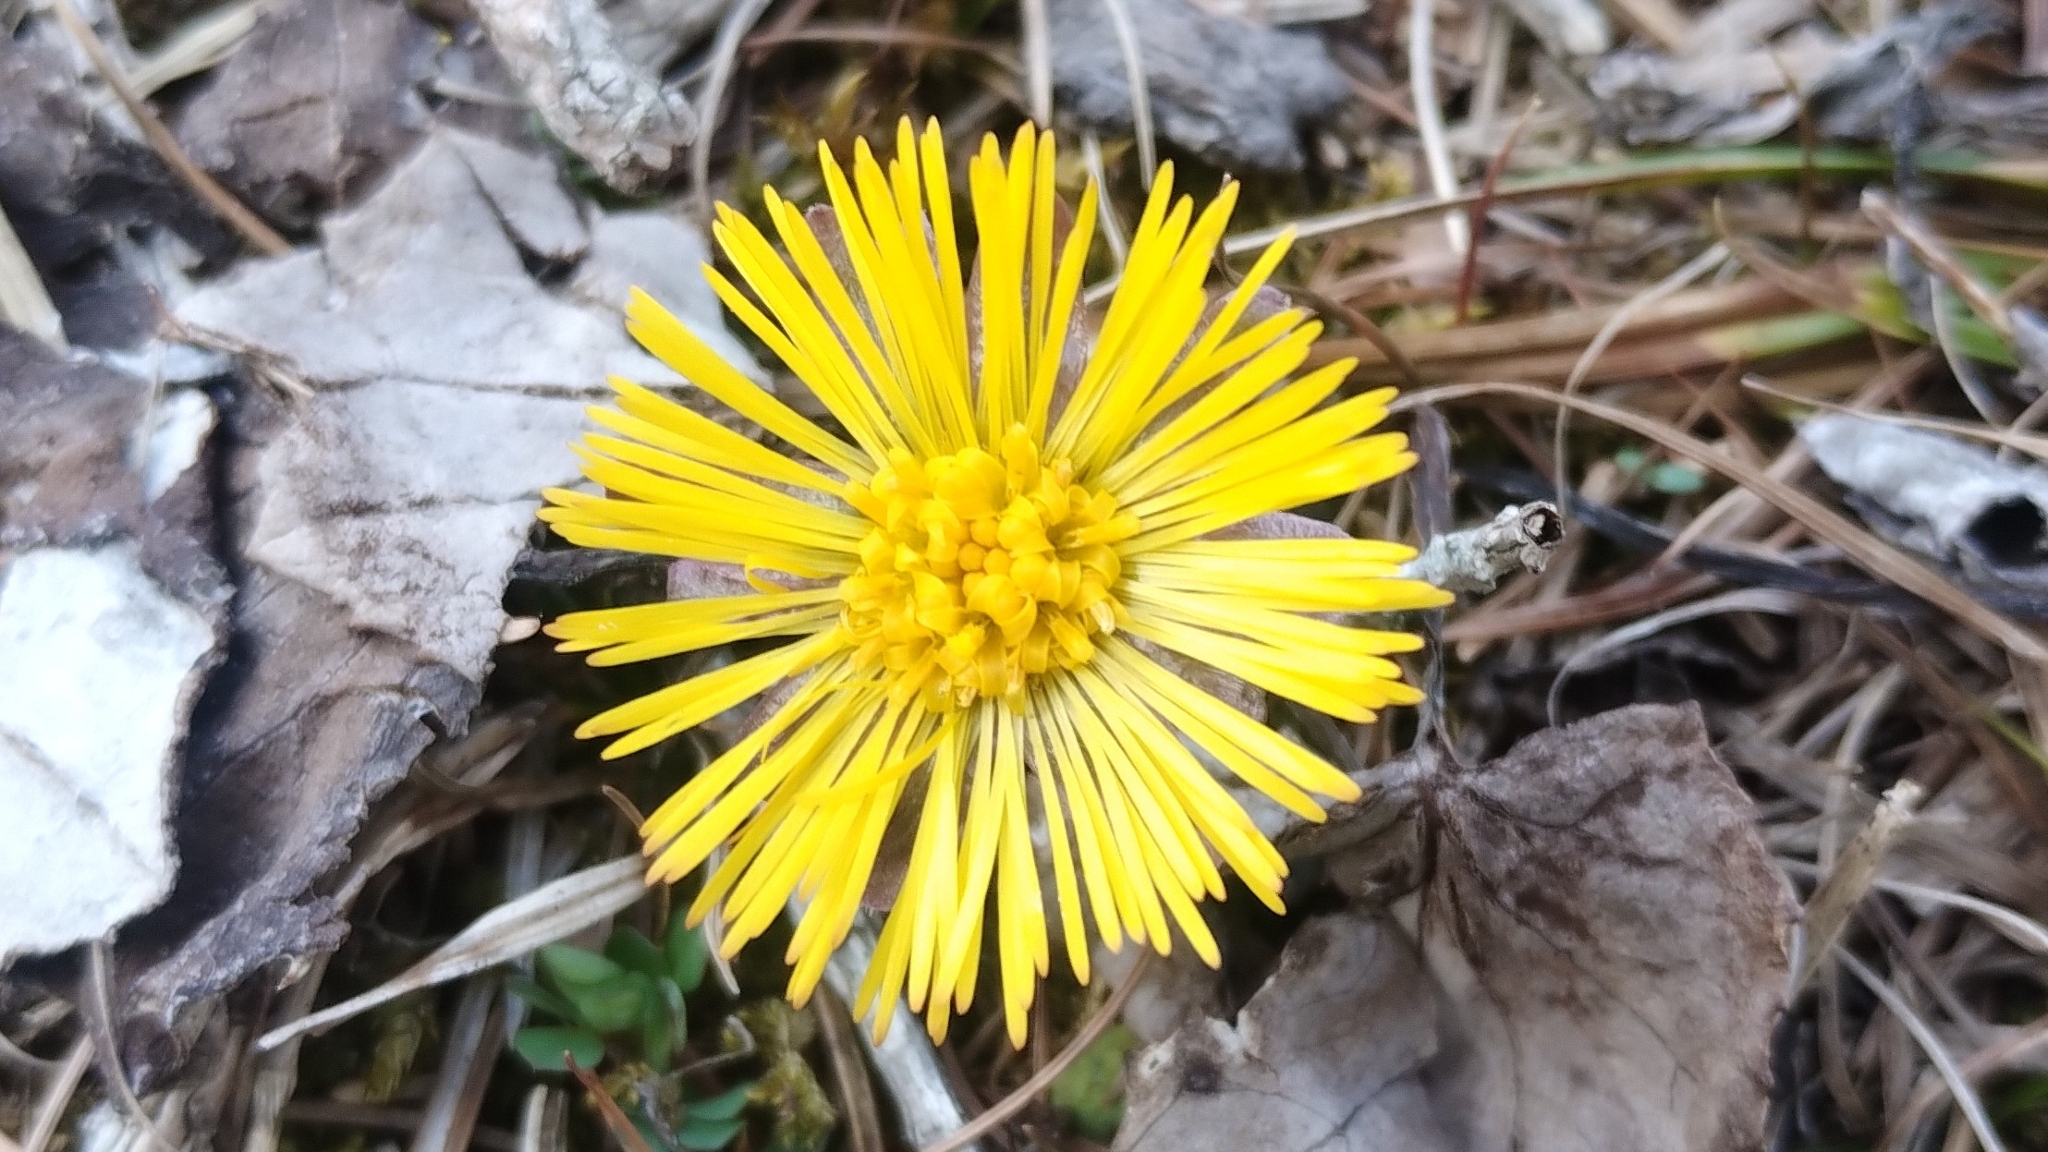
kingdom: Plantae
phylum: Tracheophyta
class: Magnoliopsida
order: Asterales
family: Asteraceae
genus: Tussilago
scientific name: Tussilago farfara
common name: Coltsfoot
